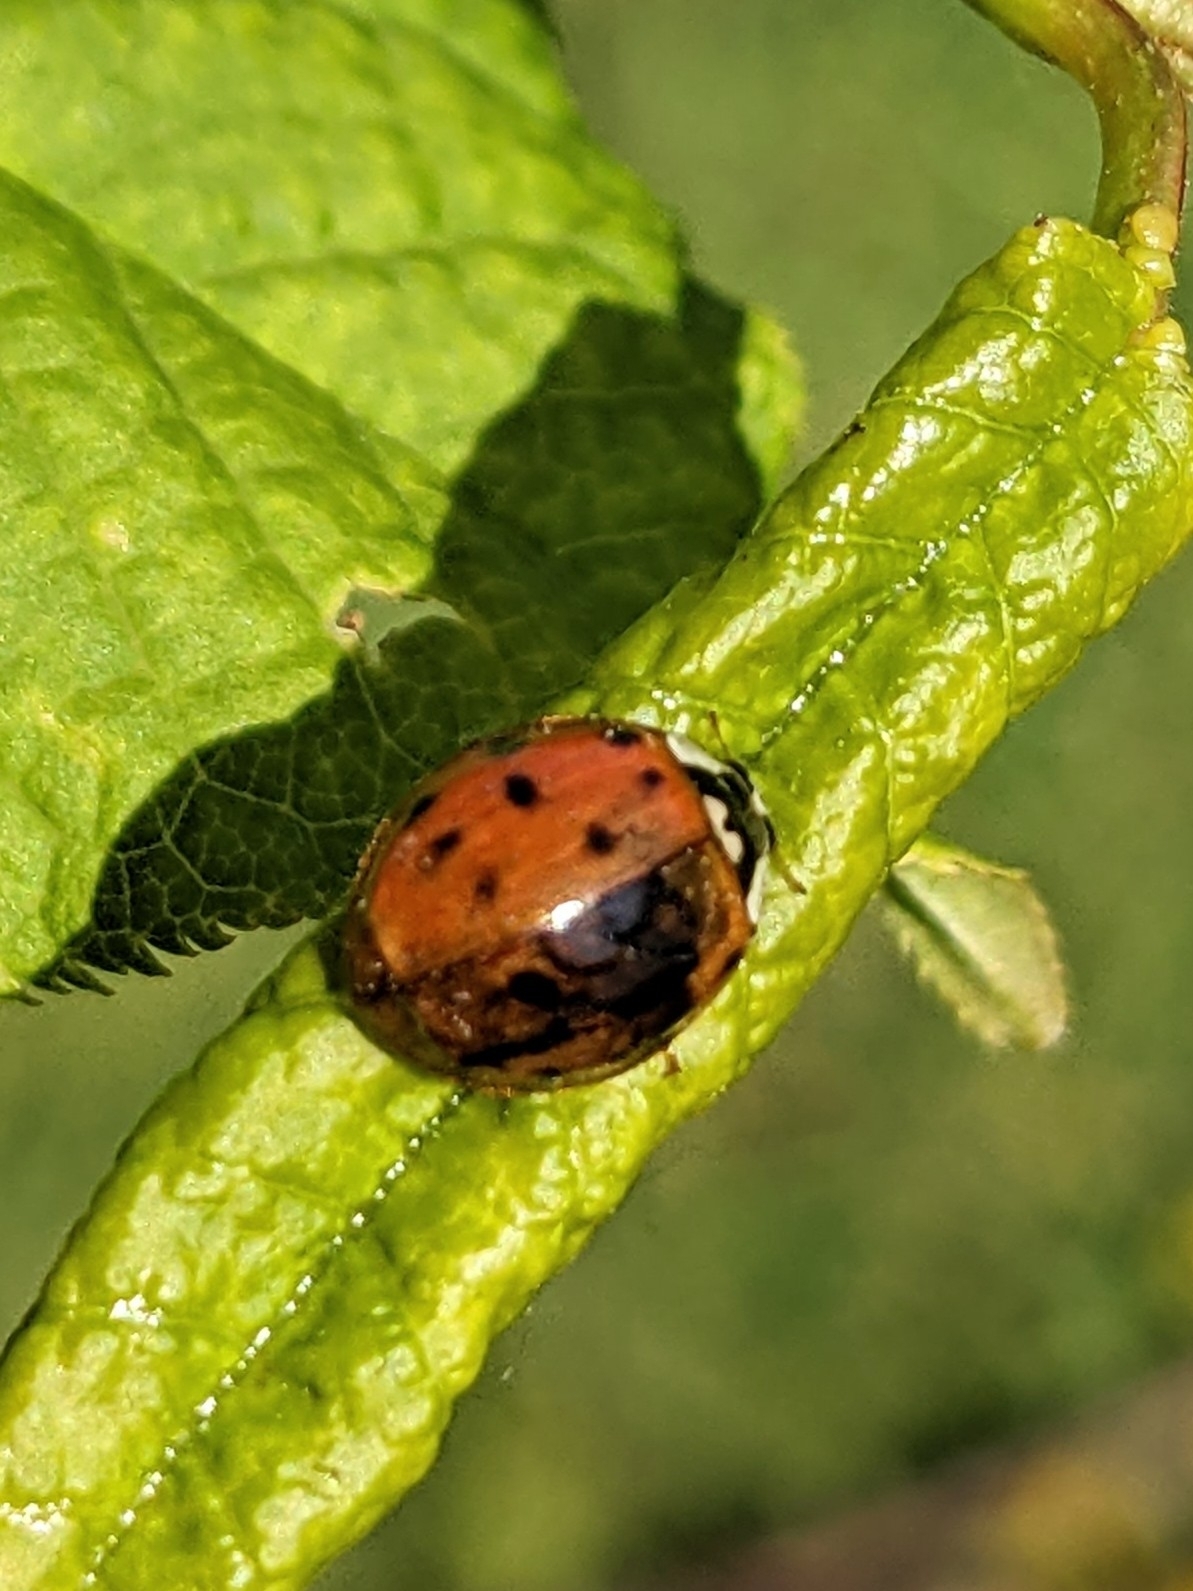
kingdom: Animalia
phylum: Arthropoda
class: Insecta
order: Coleoptera
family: Coccinellidae
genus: Harmonia
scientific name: Harmonia axyridis
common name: Harlequin ladybird
